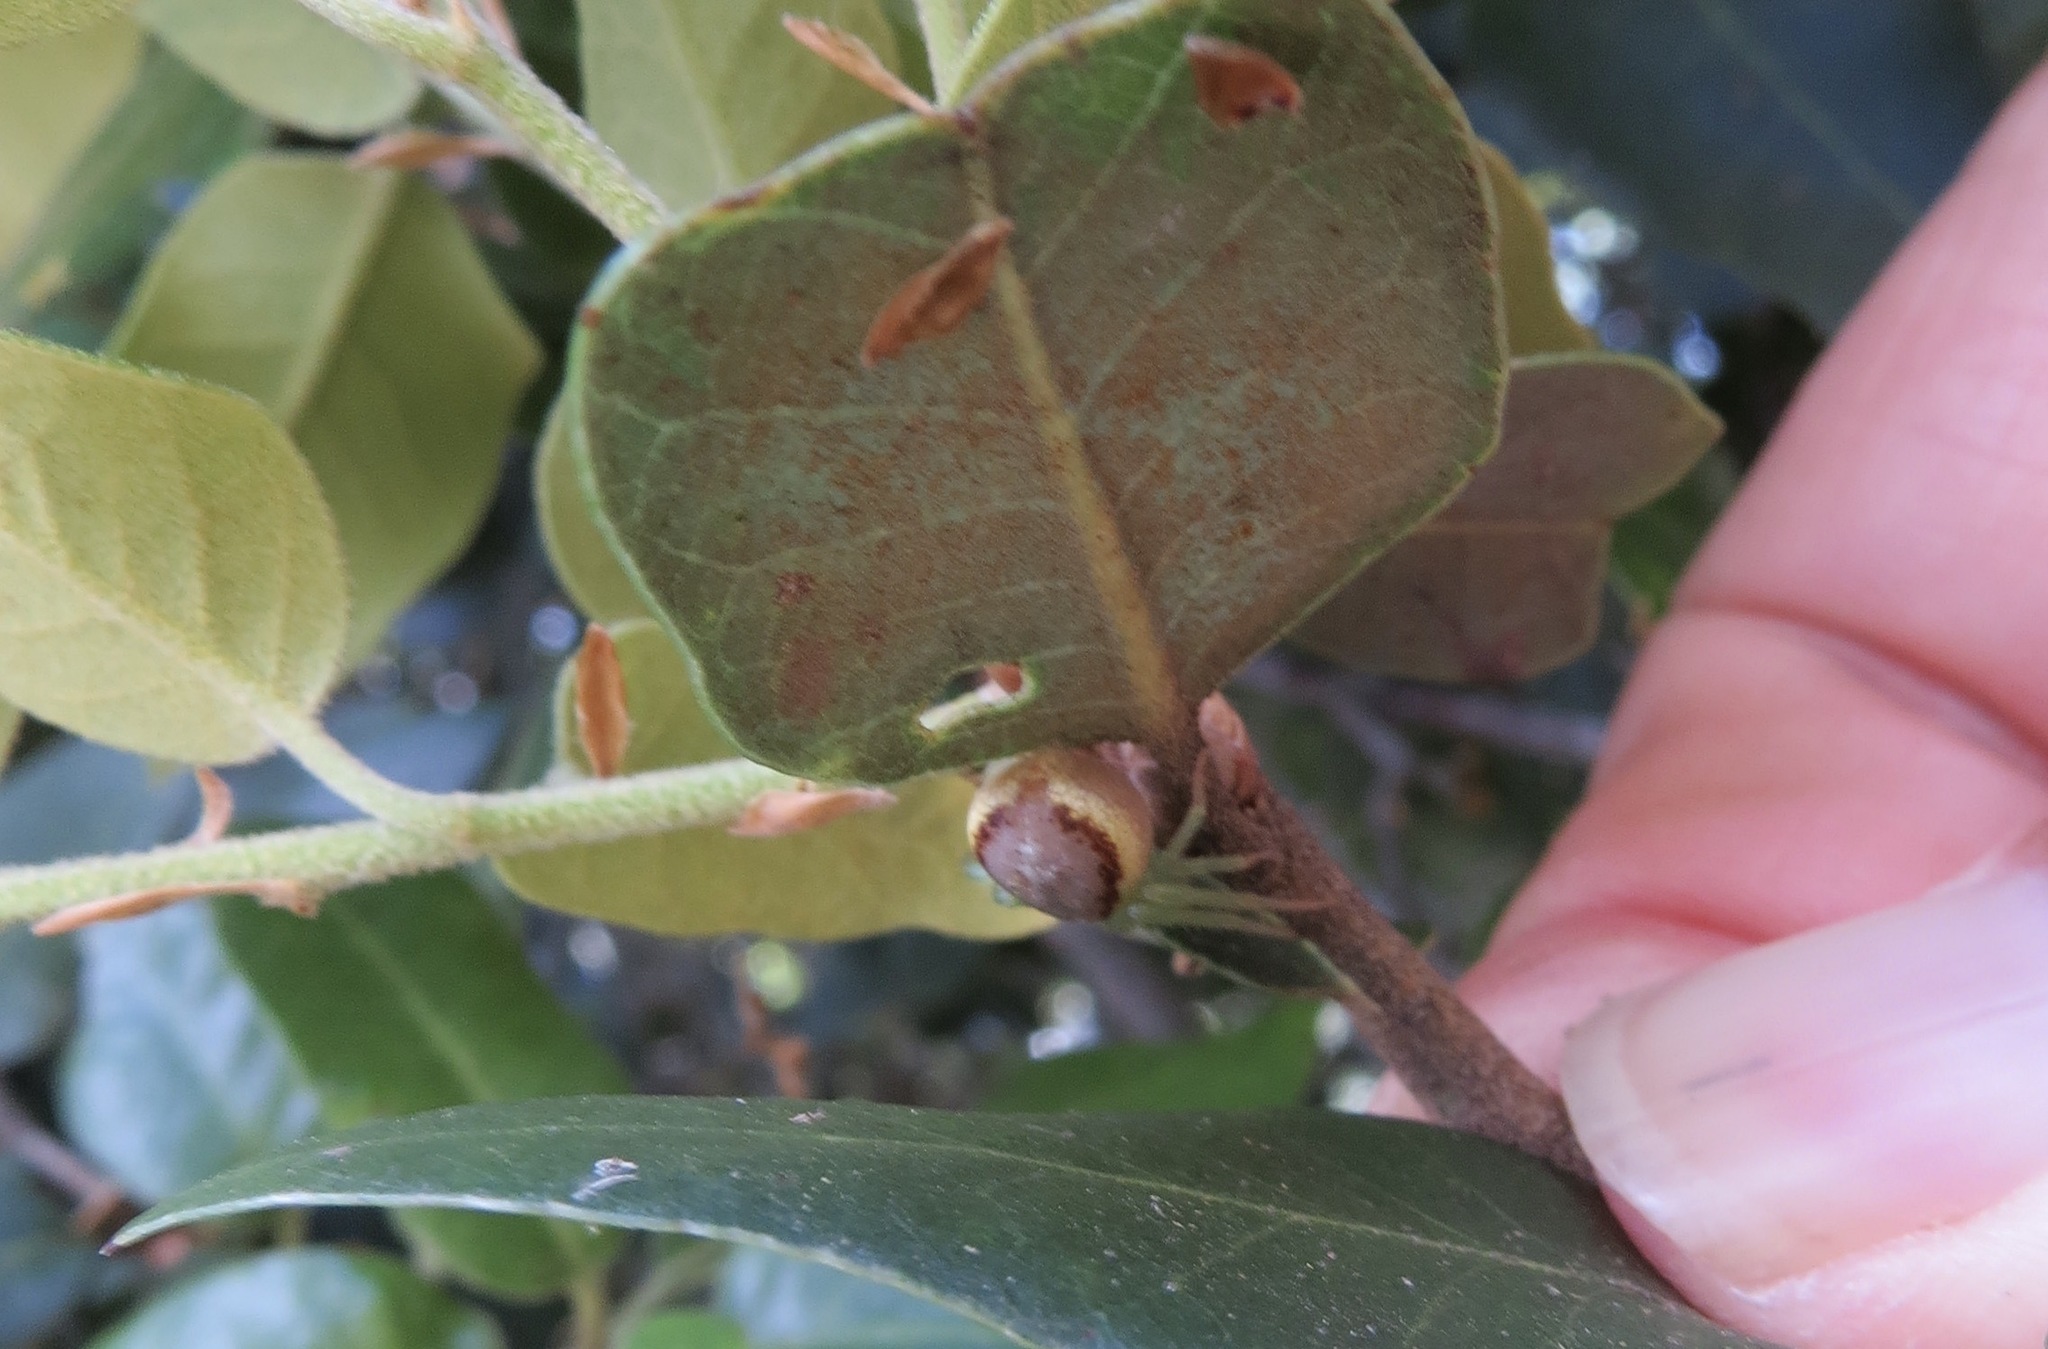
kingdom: Animalia
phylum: Arthropoda
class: Arachnida
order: Araneae
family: Thomisidae
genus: Diaea
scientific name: Diaea livens
